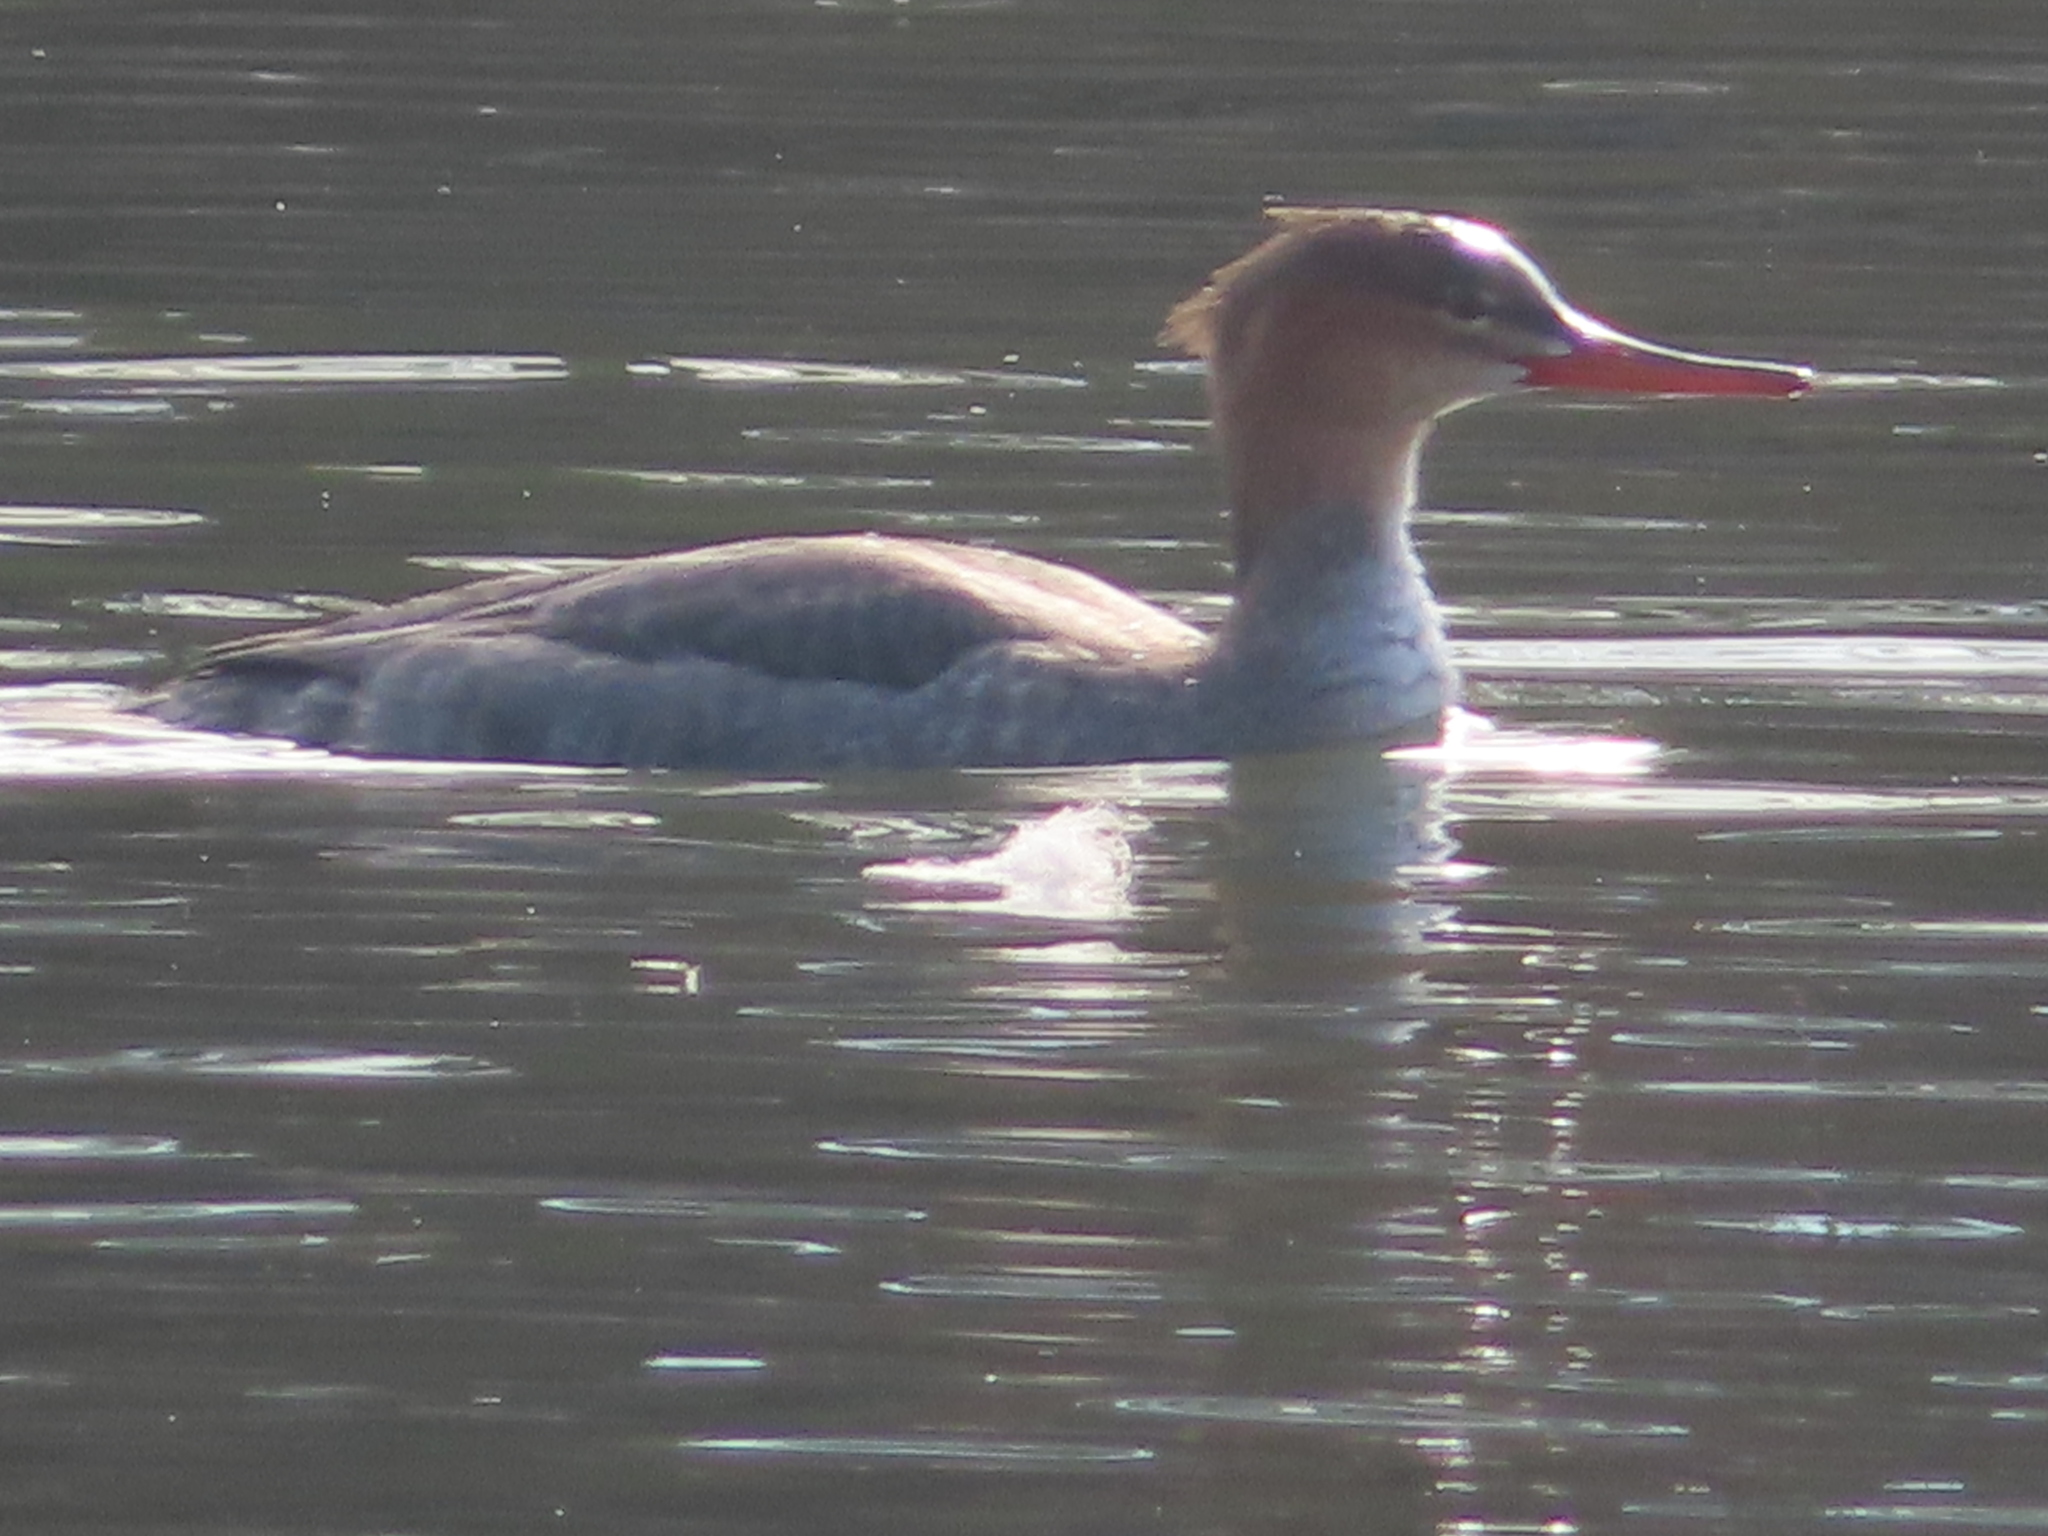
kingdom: Animalia
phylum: Chordata
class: Aves
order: Anseriformes
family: Anatidae
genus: Mergus
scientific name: Mergus serrator
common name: Red-breasted merganser
